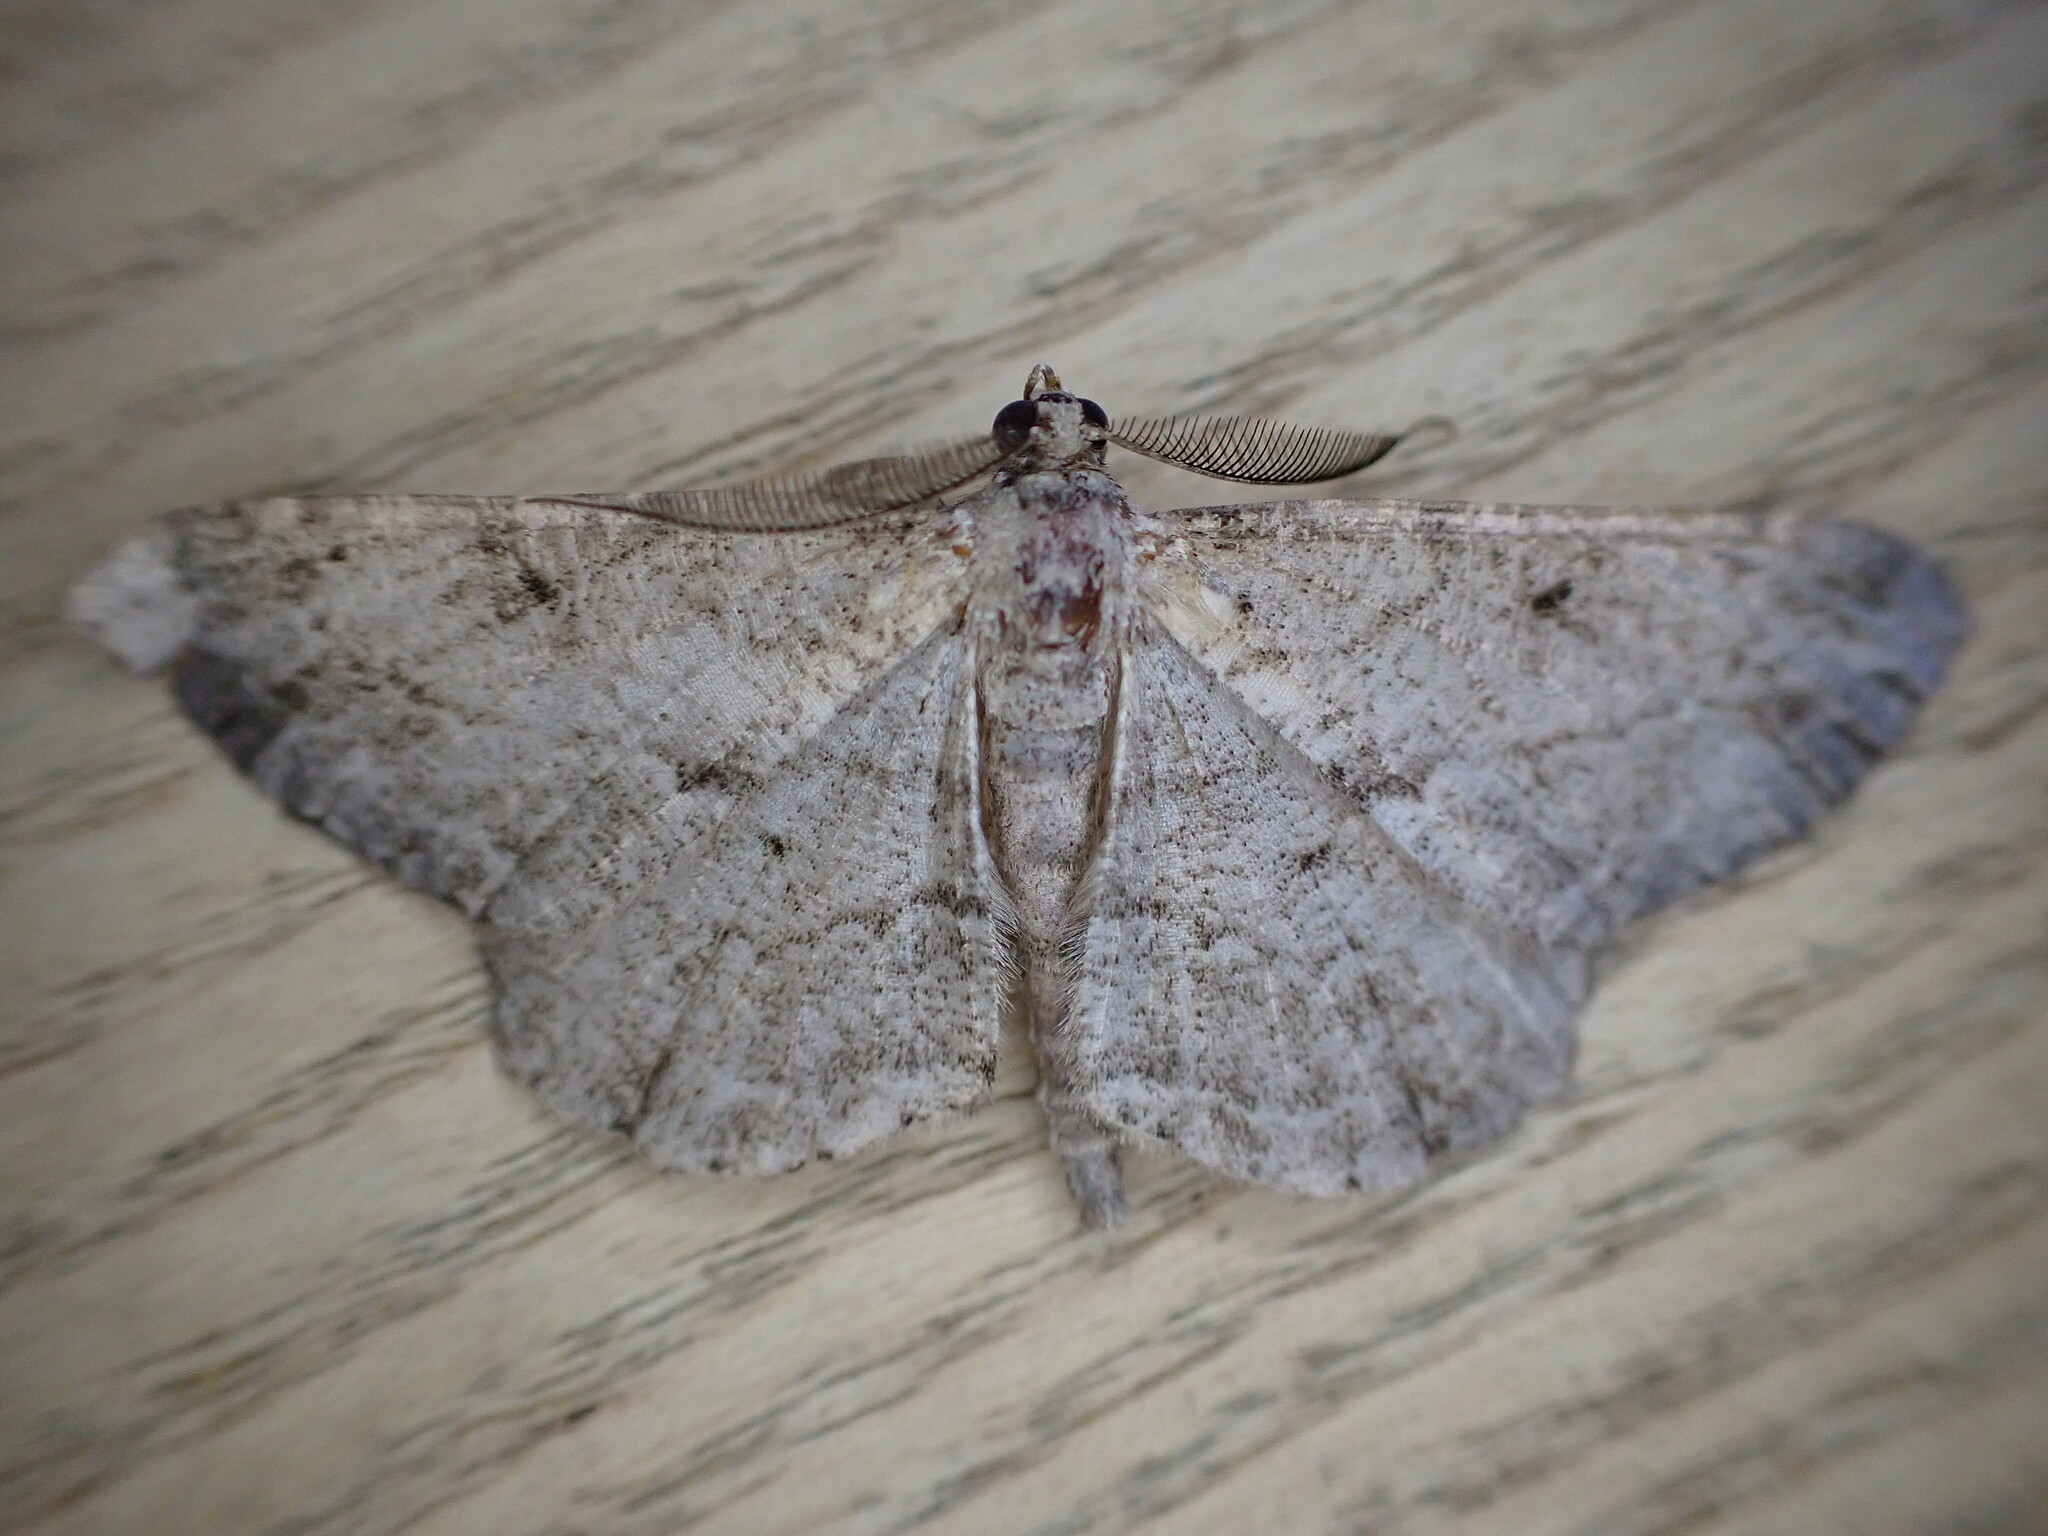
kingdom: Animalia
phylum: Arthropoda
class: Insecta
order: Lepidoptera
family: Geometridae
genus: Peribatodes
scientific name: Peribatodes rhomboidaria
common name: Willow beauty
